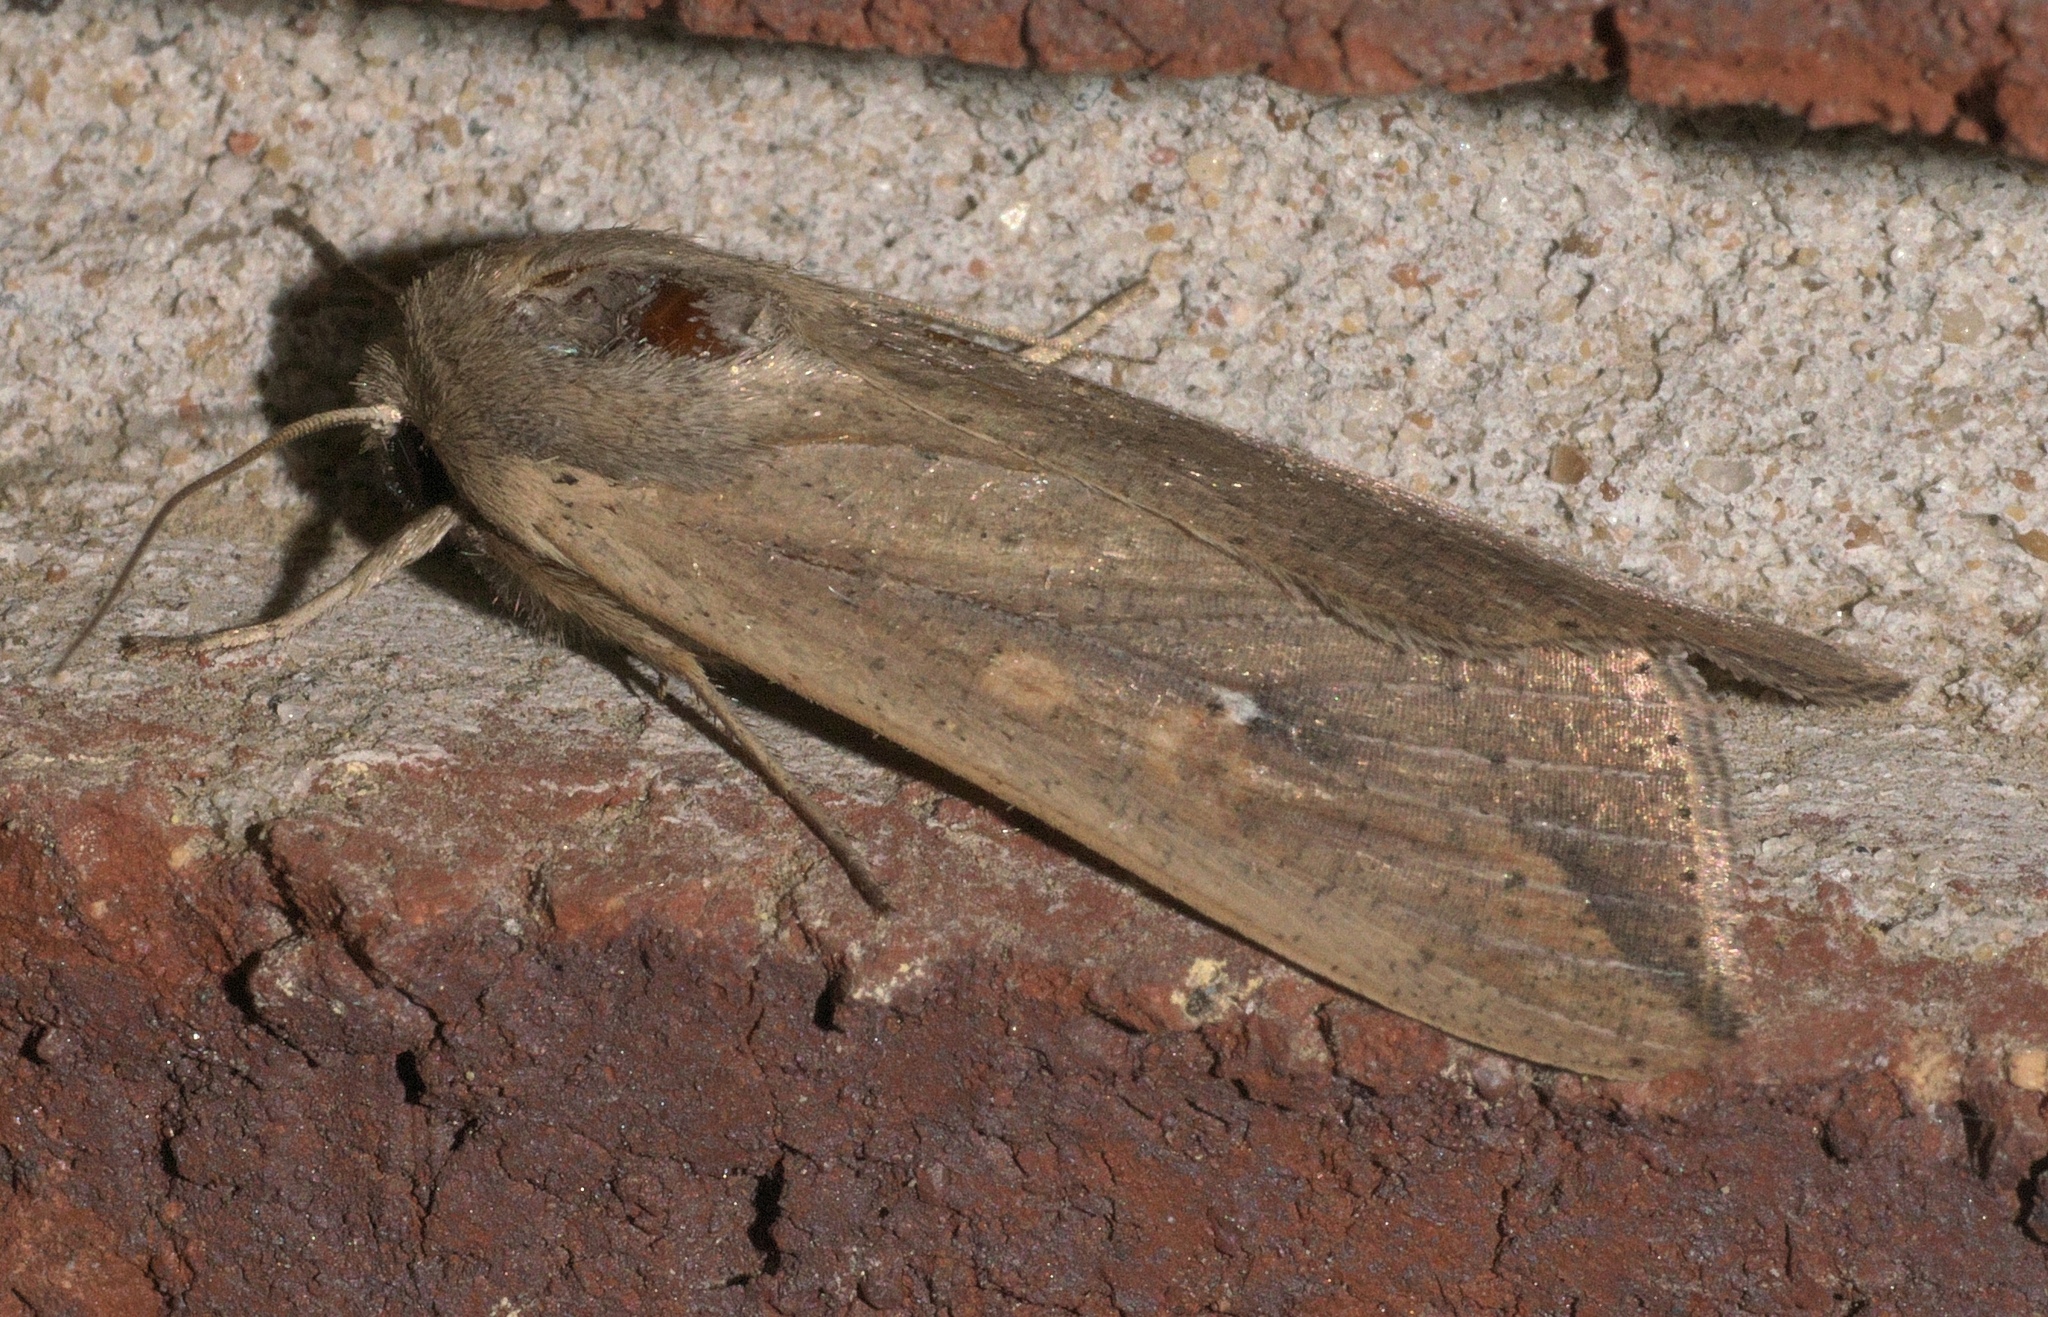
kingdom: Animalia
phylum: Arthropoda
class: Insecta
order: Lepidoptera
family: Noctuidae
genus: Mythimna
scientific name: Mythimna unipuncta
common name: White-speck
